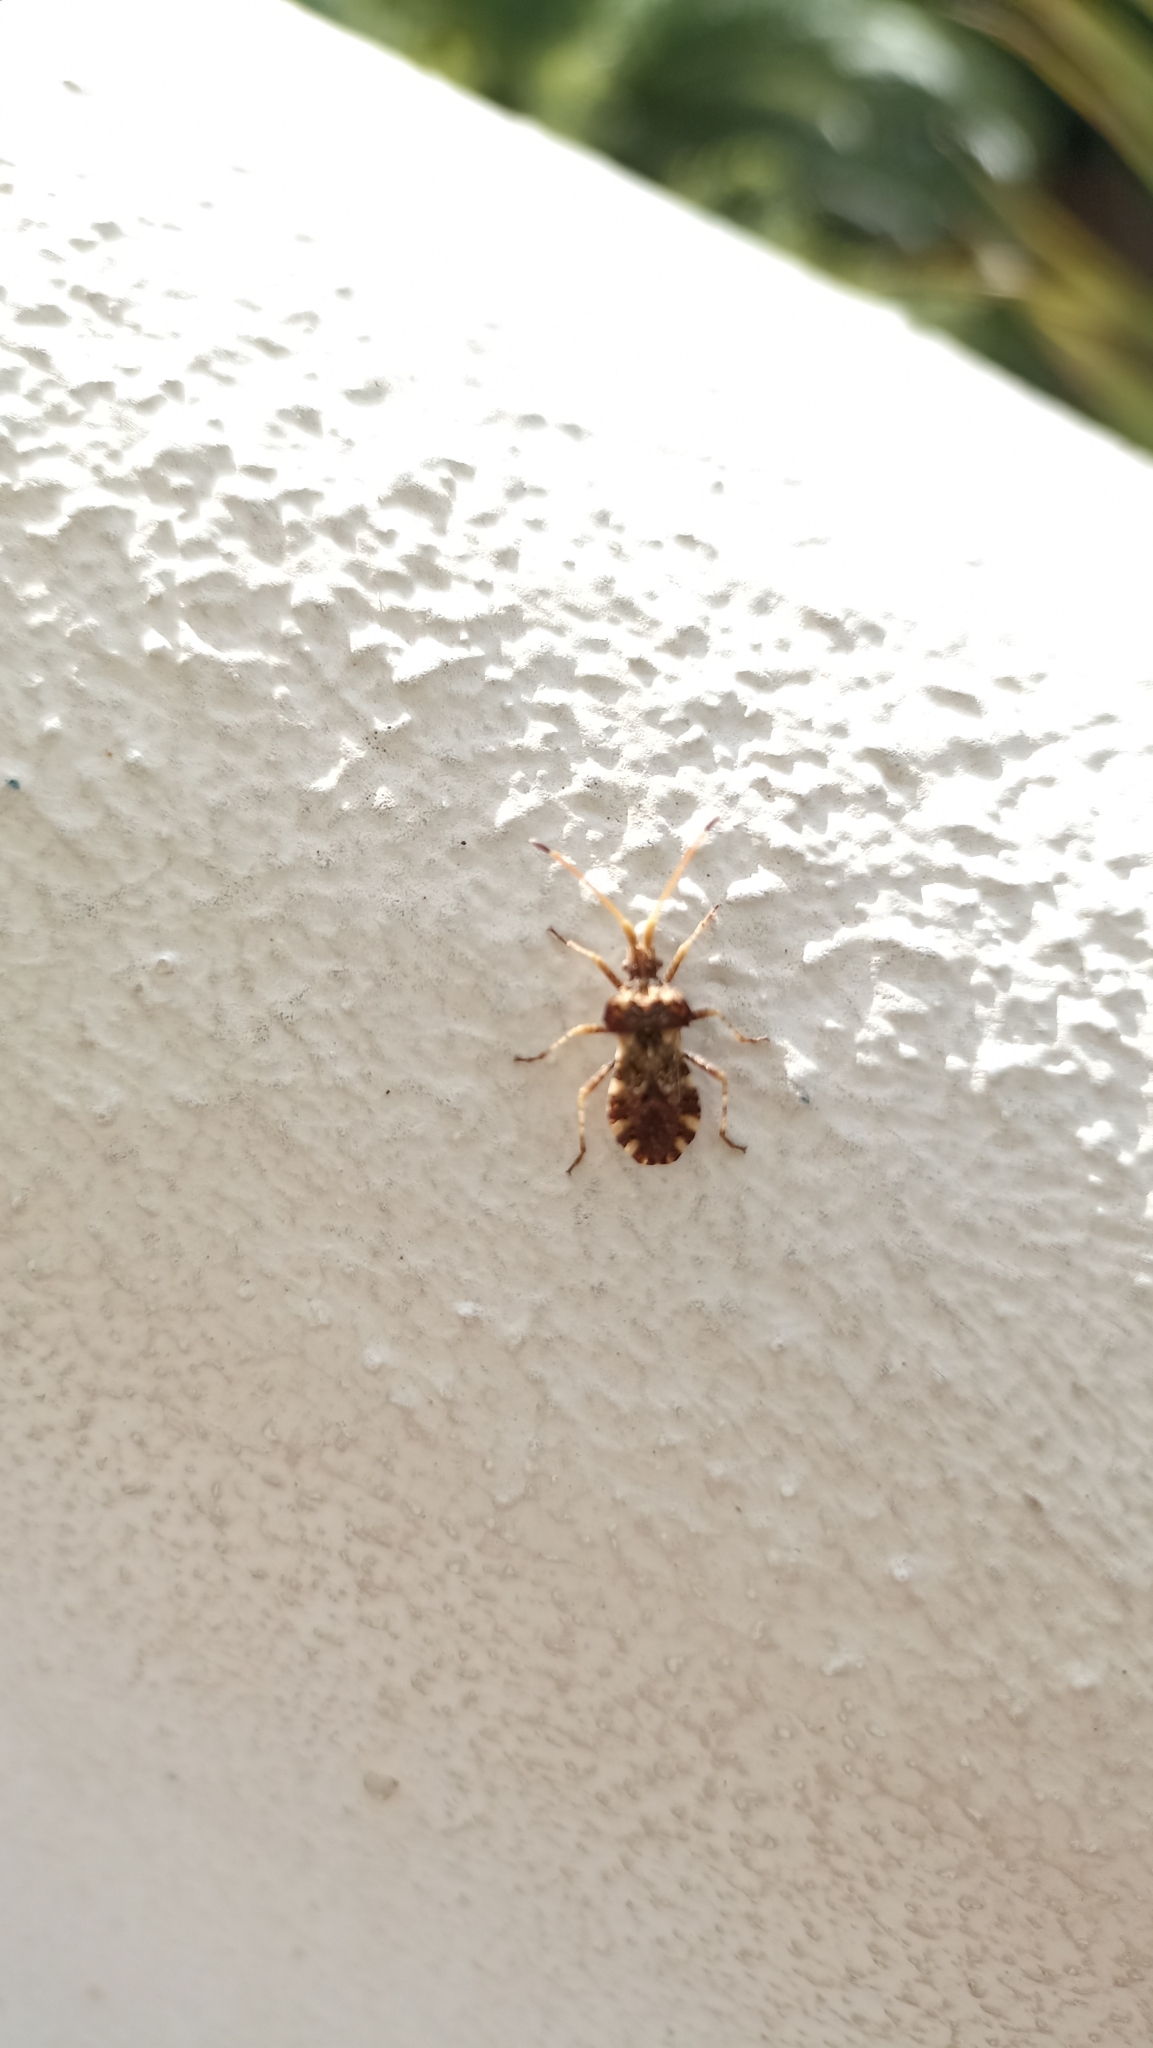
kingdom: Animalia
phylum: Arthropoda
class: Insecta
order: Hemiptera
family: Coreidae
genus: Centrocoris
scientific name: Centrocoris variegatus
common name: Leaf-footed bug
